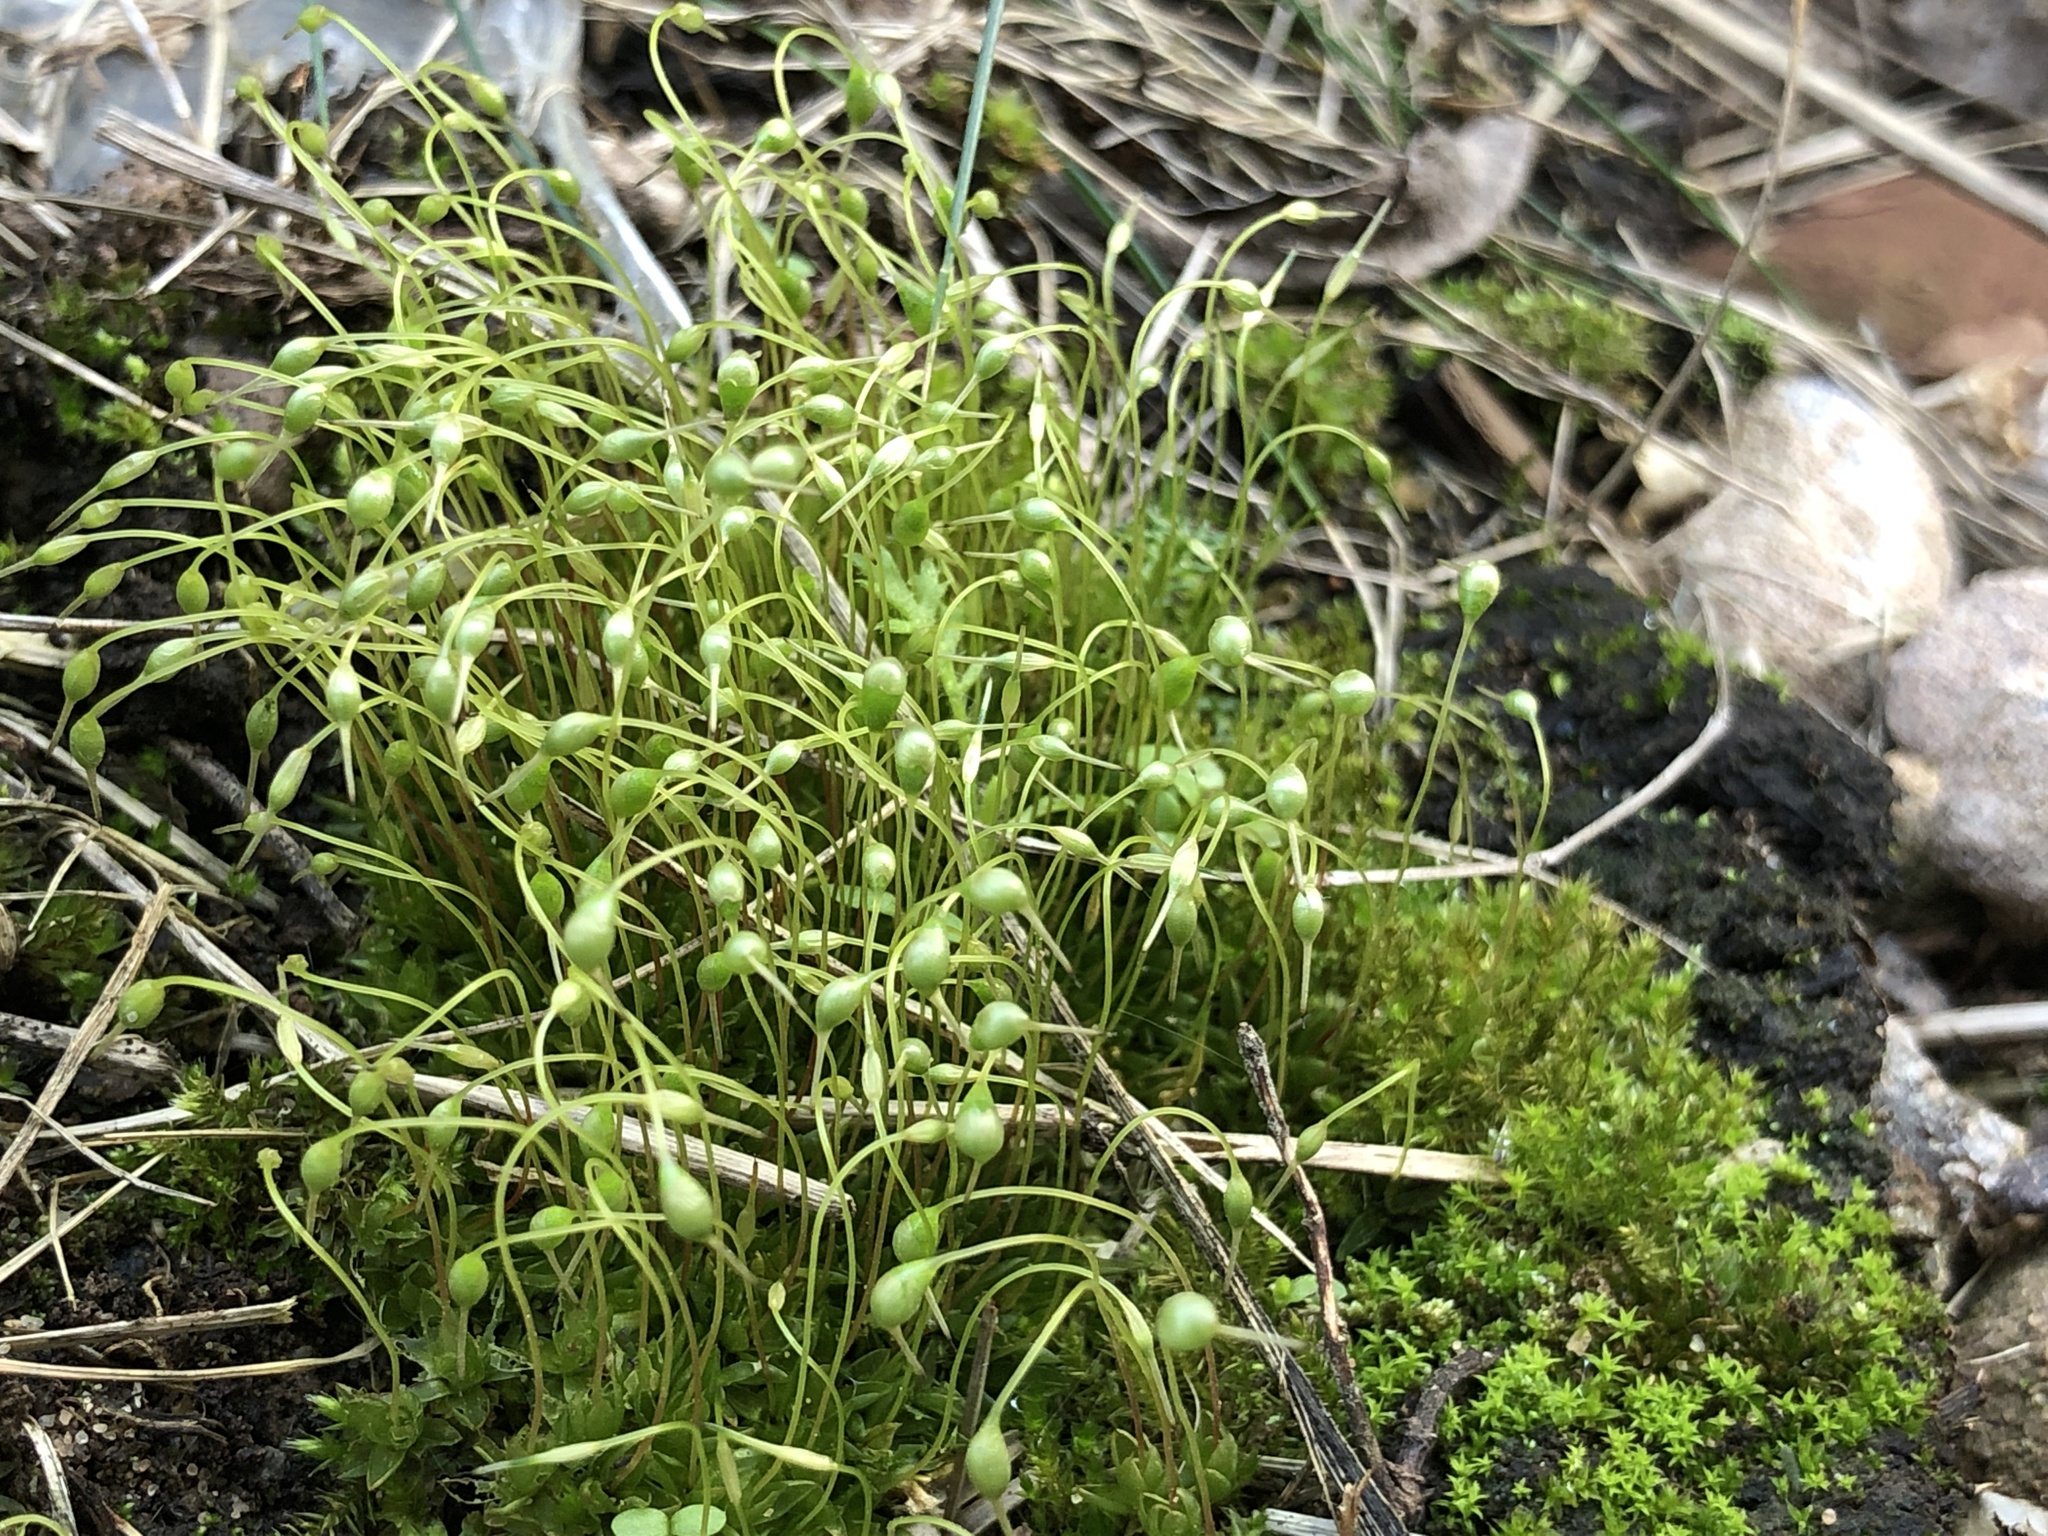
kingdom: Plantae
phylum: Bryophyta
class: Bryopsida
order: Funariales
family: Funariaceae
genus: Funaria
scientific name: Funaria hygrometrica
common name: Common cord moss
